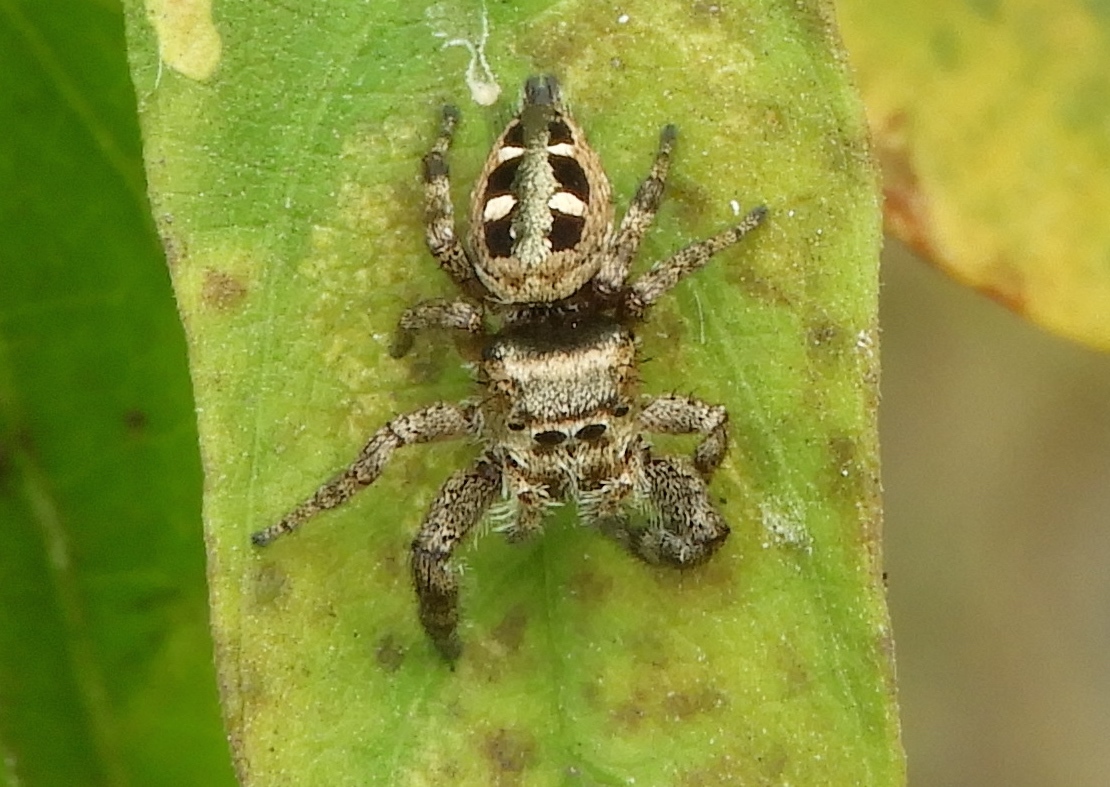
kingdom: Animalia
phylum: Arthropoda
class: Arachnida
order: Araneae
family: Salticidae
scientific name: Salticidae
